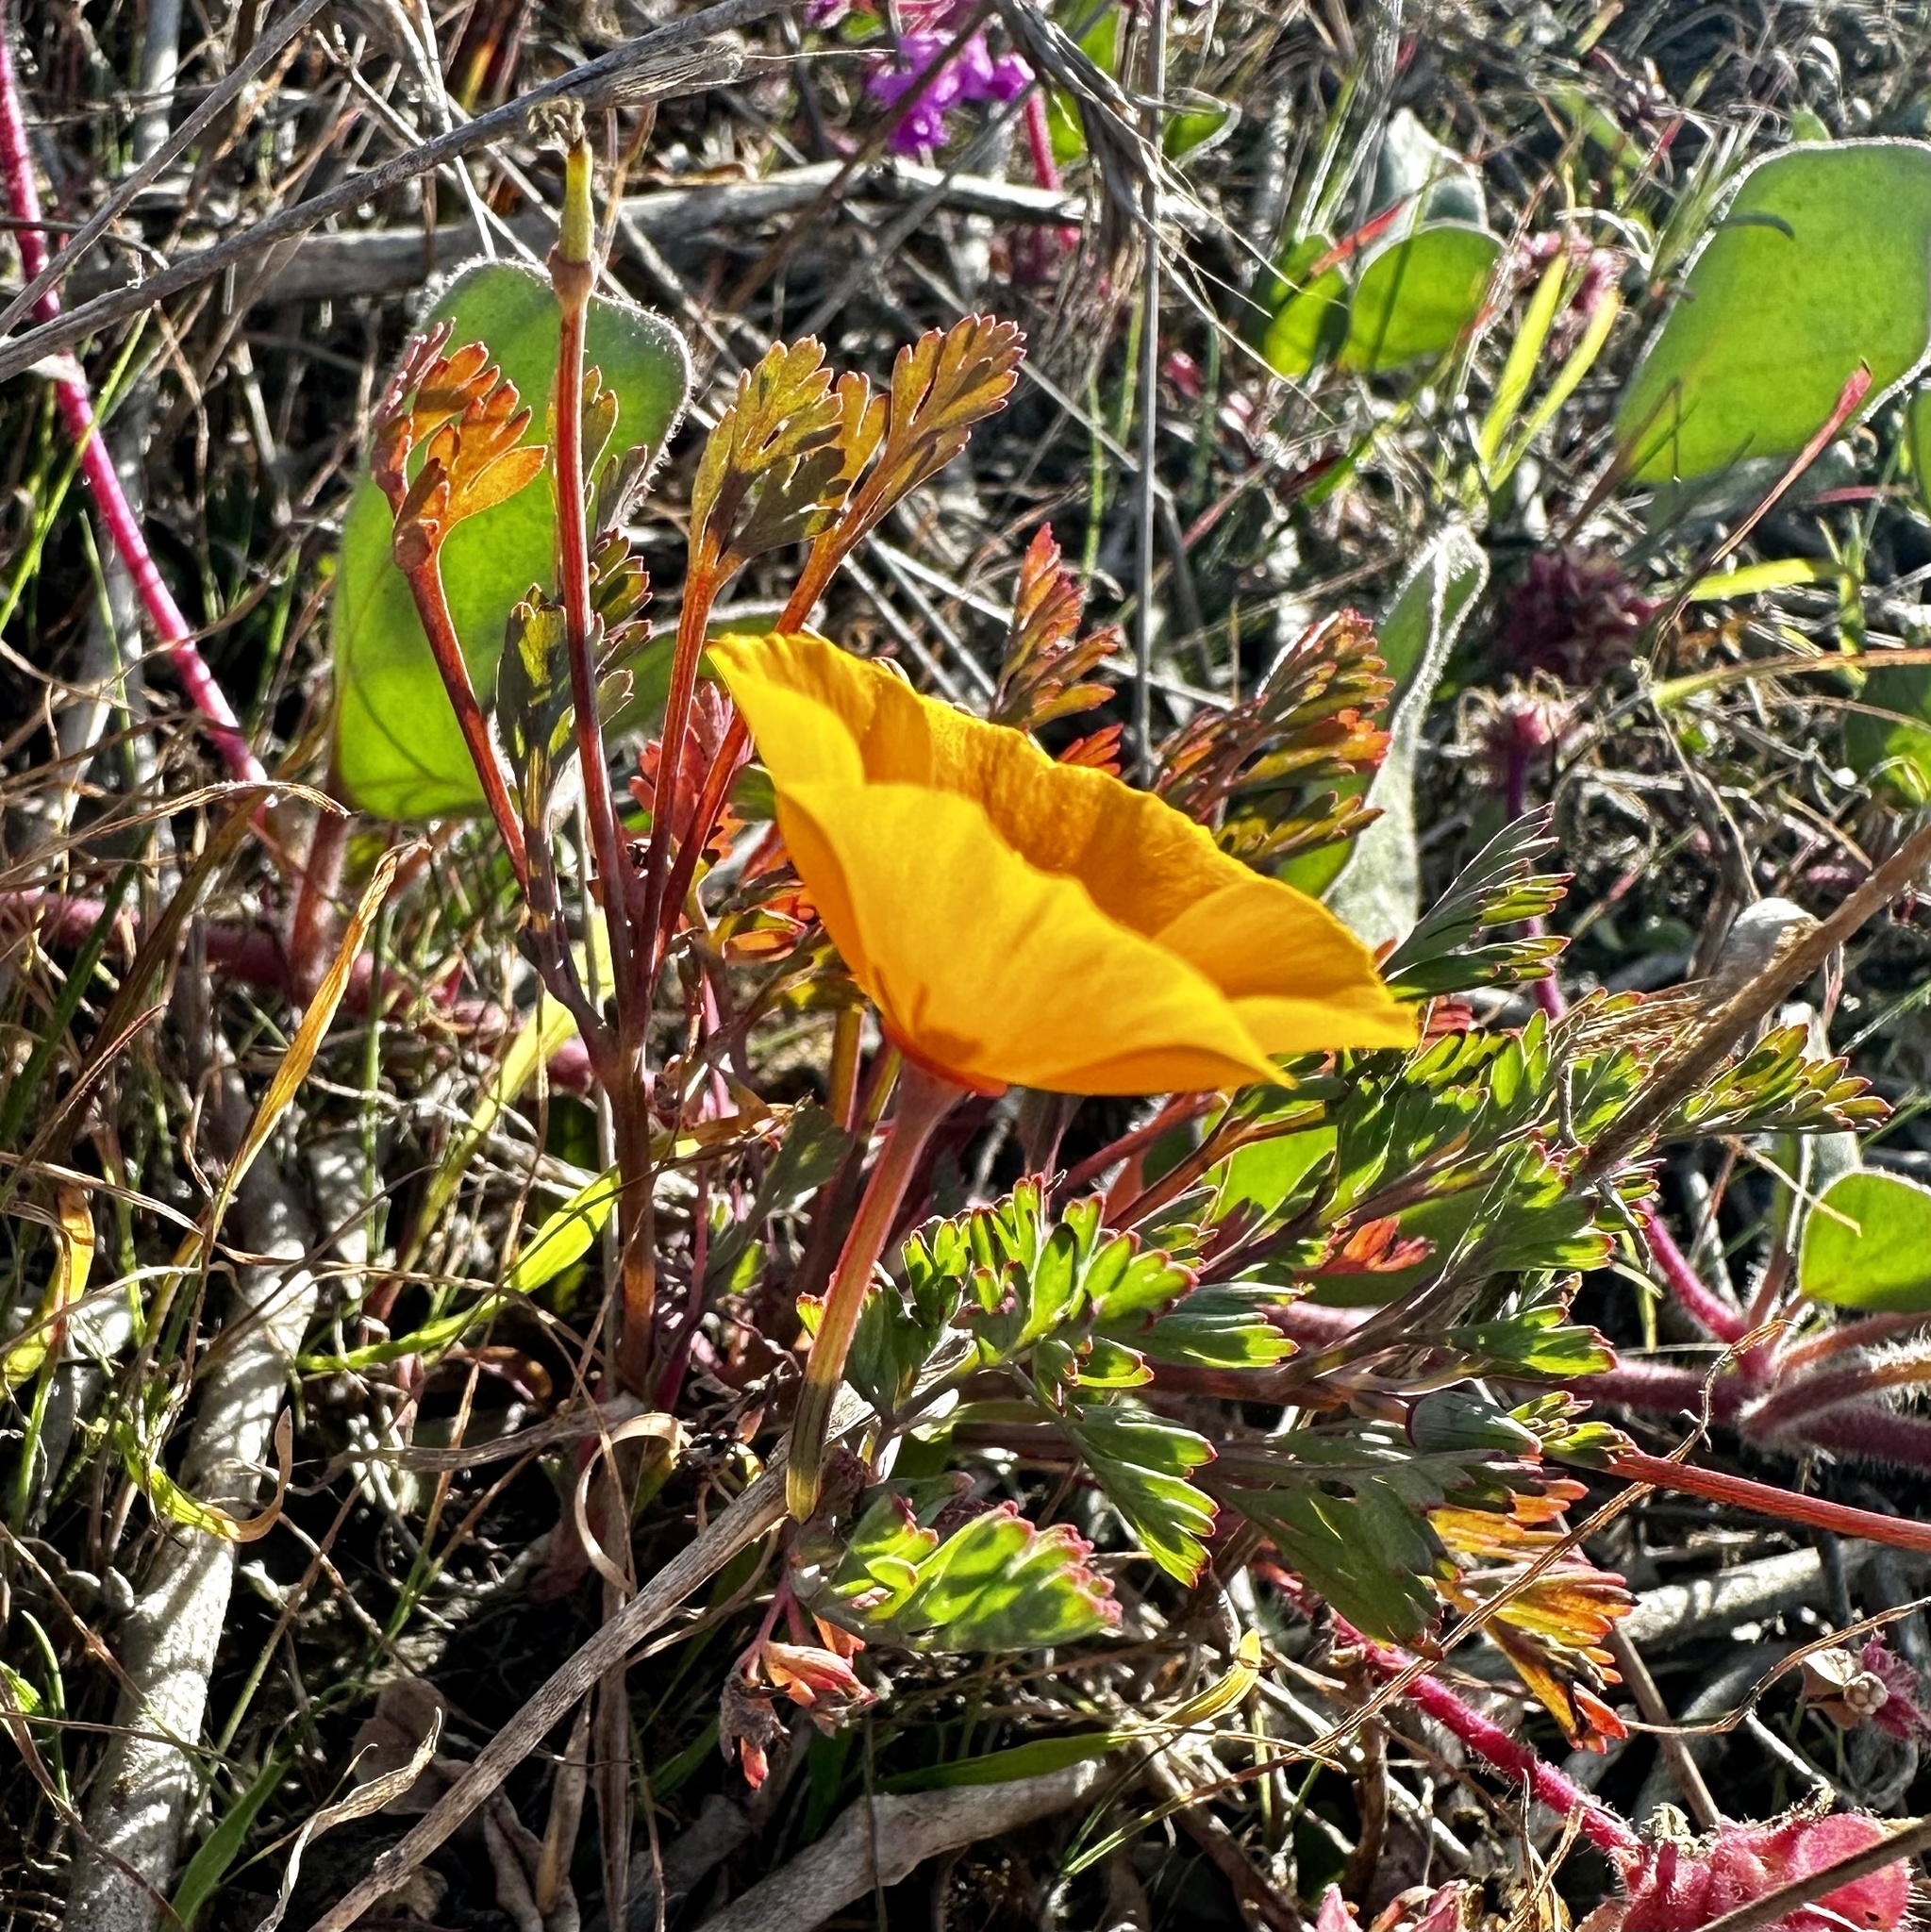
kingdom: Plantae
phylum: Tracheophyta
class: Magnoliopsida
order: Ranunculales
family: Papaveraceae
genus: Eschscholzia
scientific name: Eschscholzia californica
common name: California poppy
